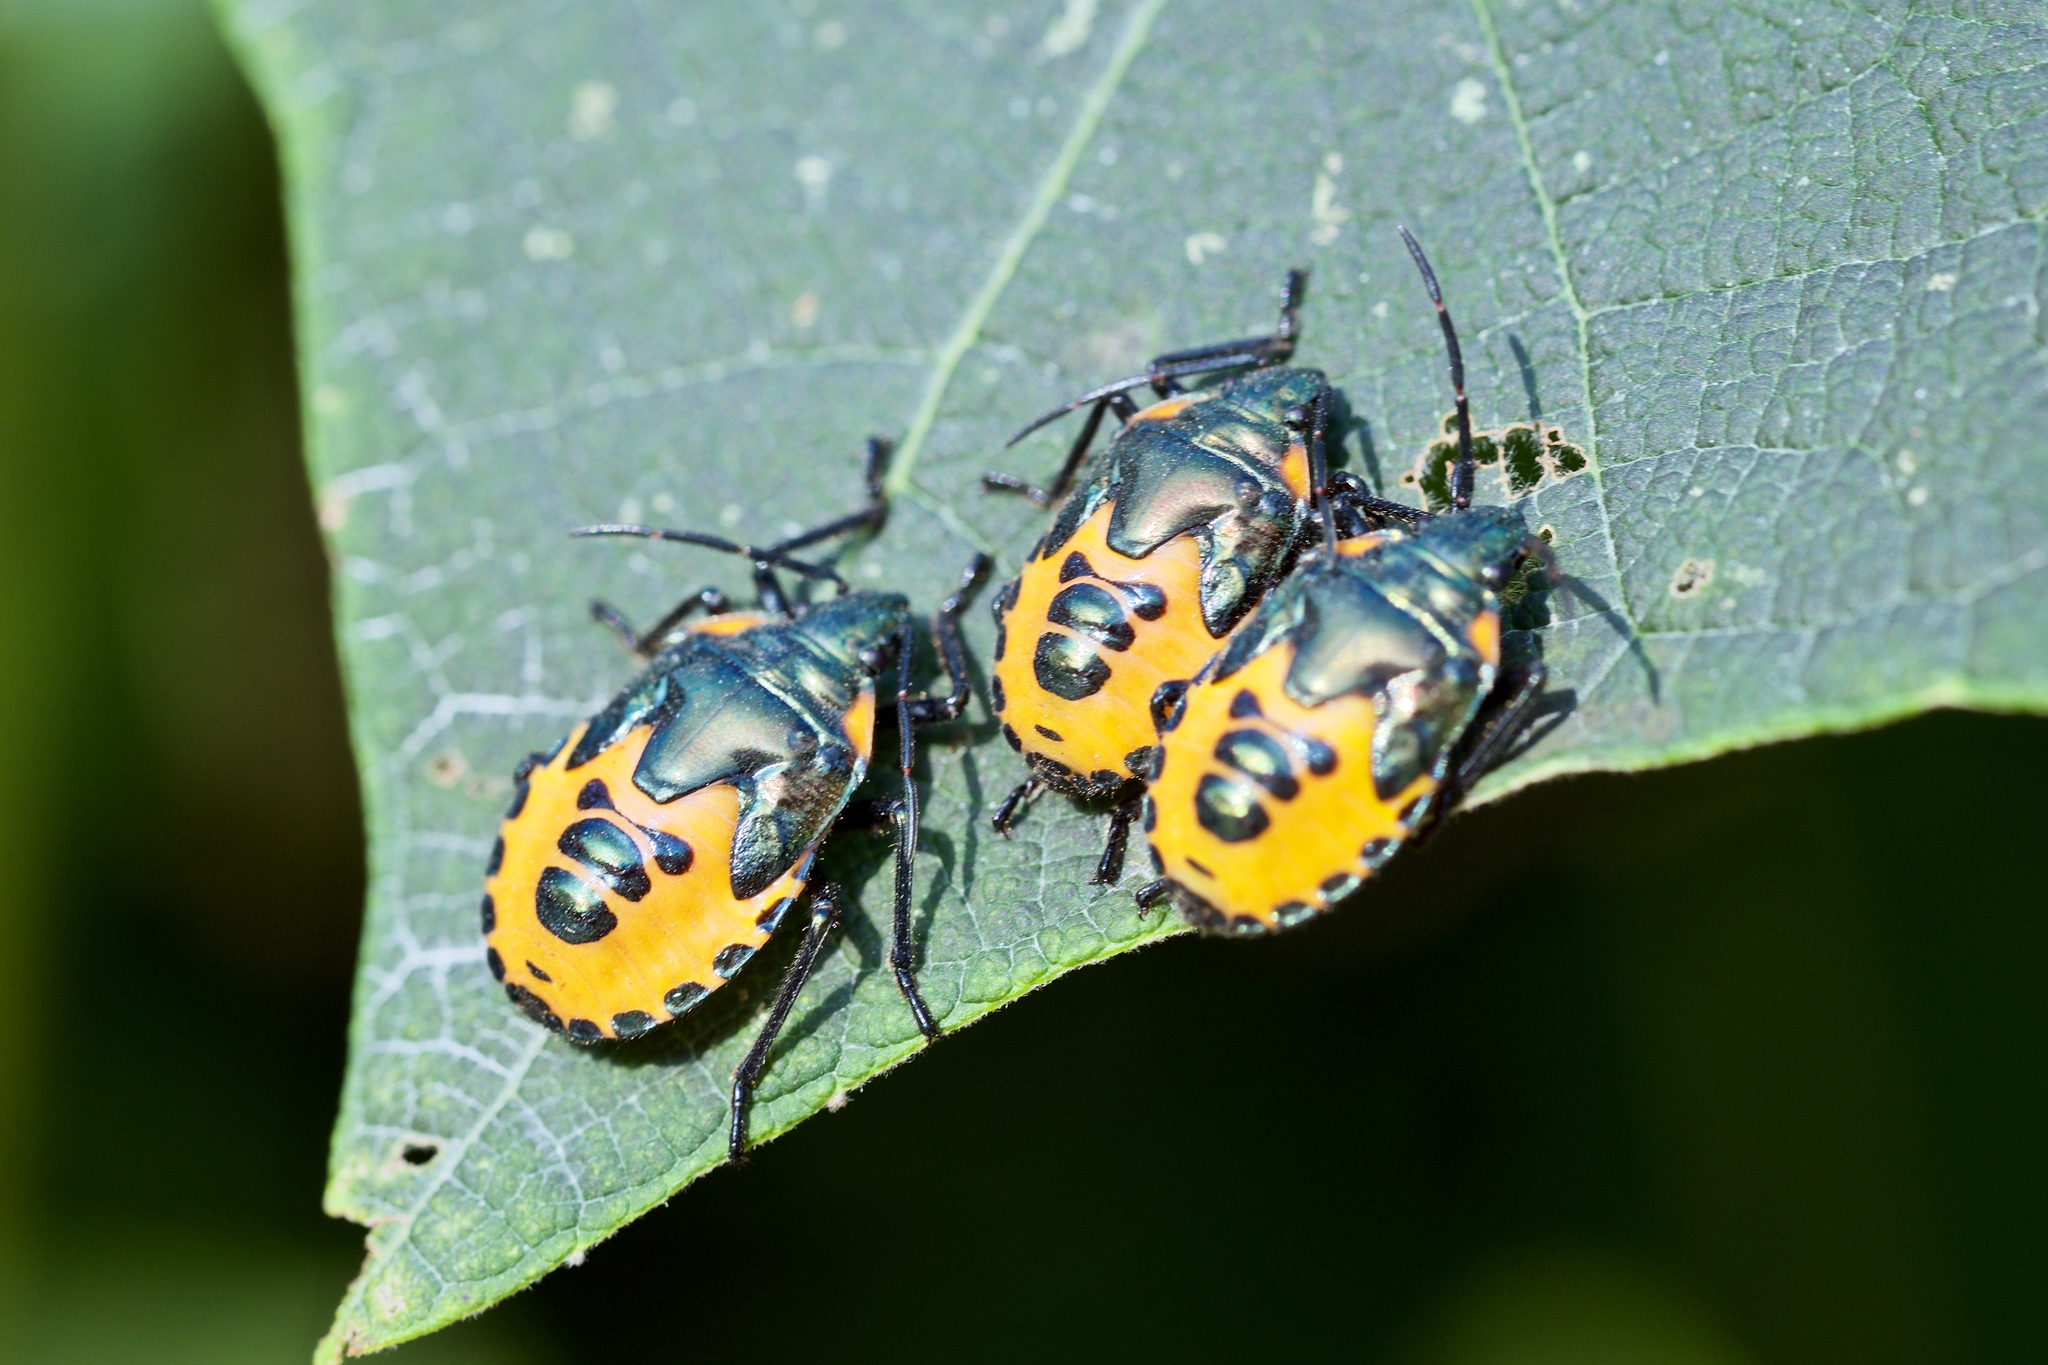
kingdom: Animalia
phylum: Arthropoda
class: Insecta
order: Hemiptera
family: Scutelleridae
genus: Cantao
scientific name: Cantao ocellatus
